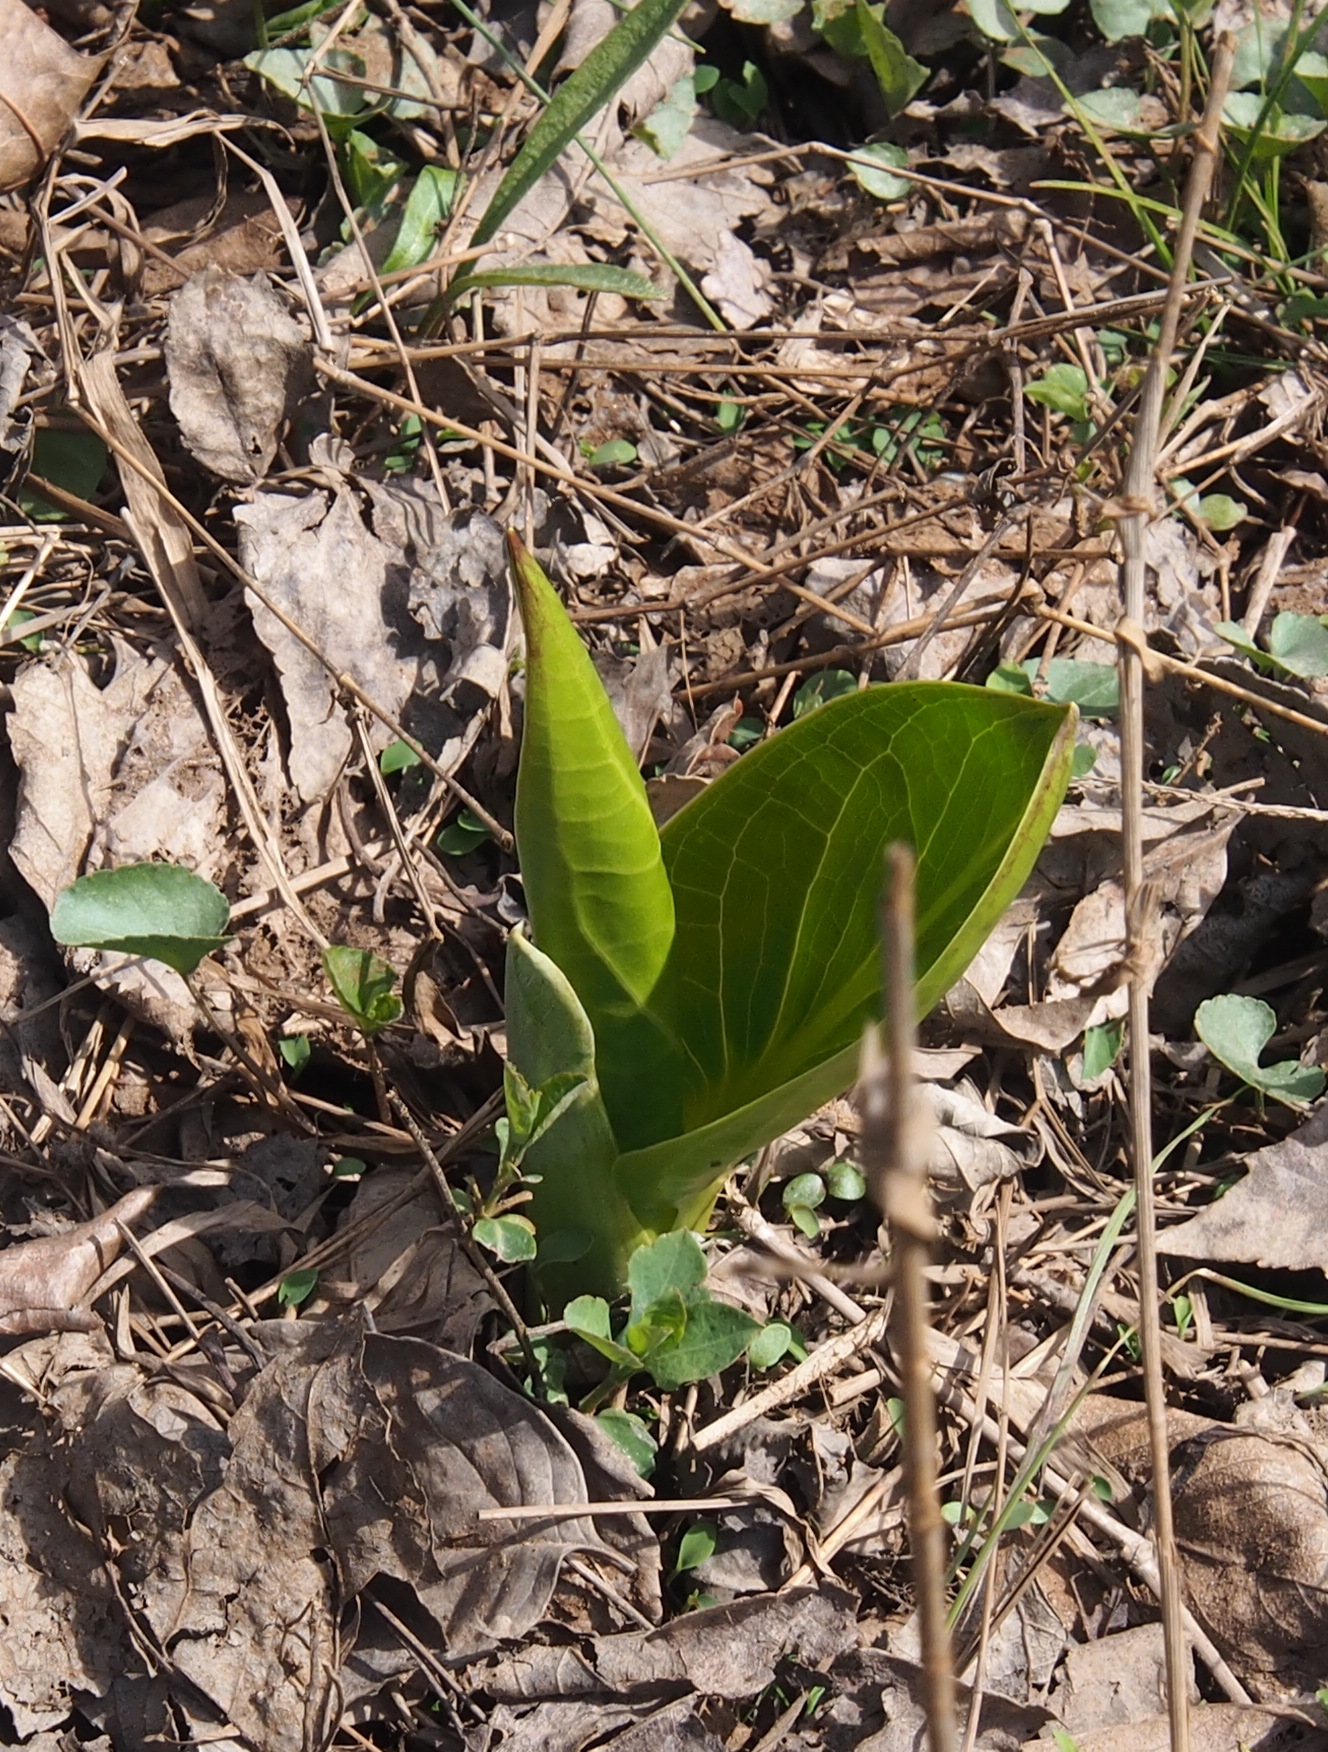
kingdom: Plantae
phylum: Tracheophyta
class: Liliopsida
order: Alismatales
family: Araceae
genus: Symplocarpus
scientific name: Symplocarpus foetidus
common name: Eastern skunk cabbage
